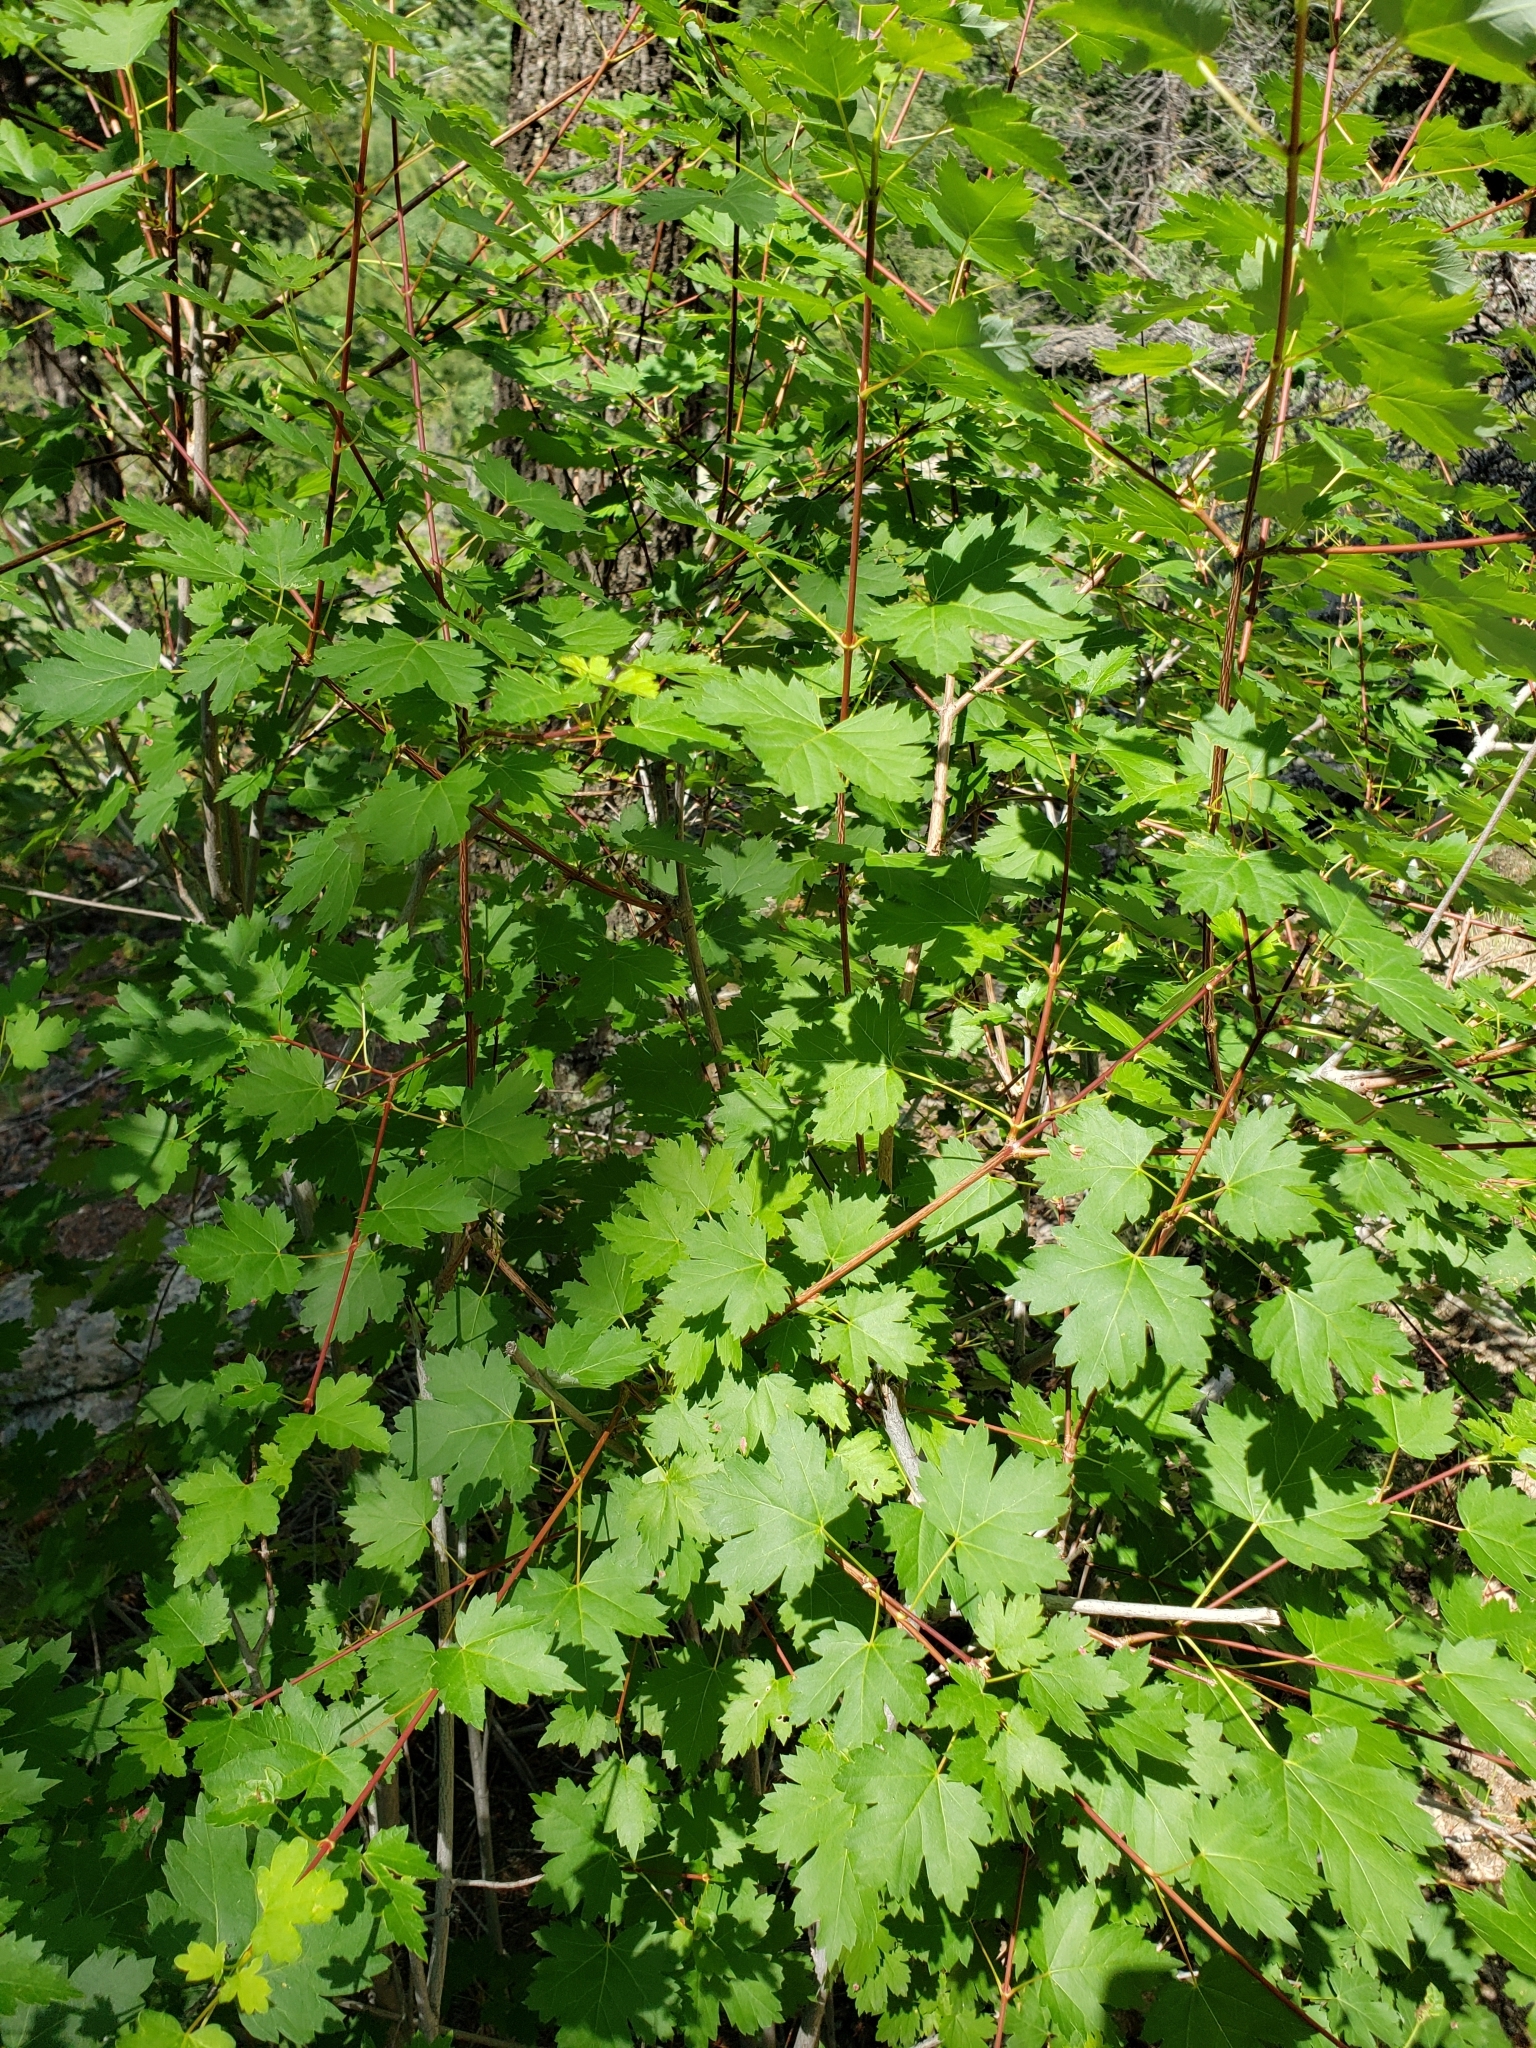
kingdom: Plantae
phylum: Tracheophyta
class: Magnoliopsida
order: Sapindales
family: Sapindaceae
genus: Acer
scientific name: Acer glabrum
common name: Rocky mountain maple
